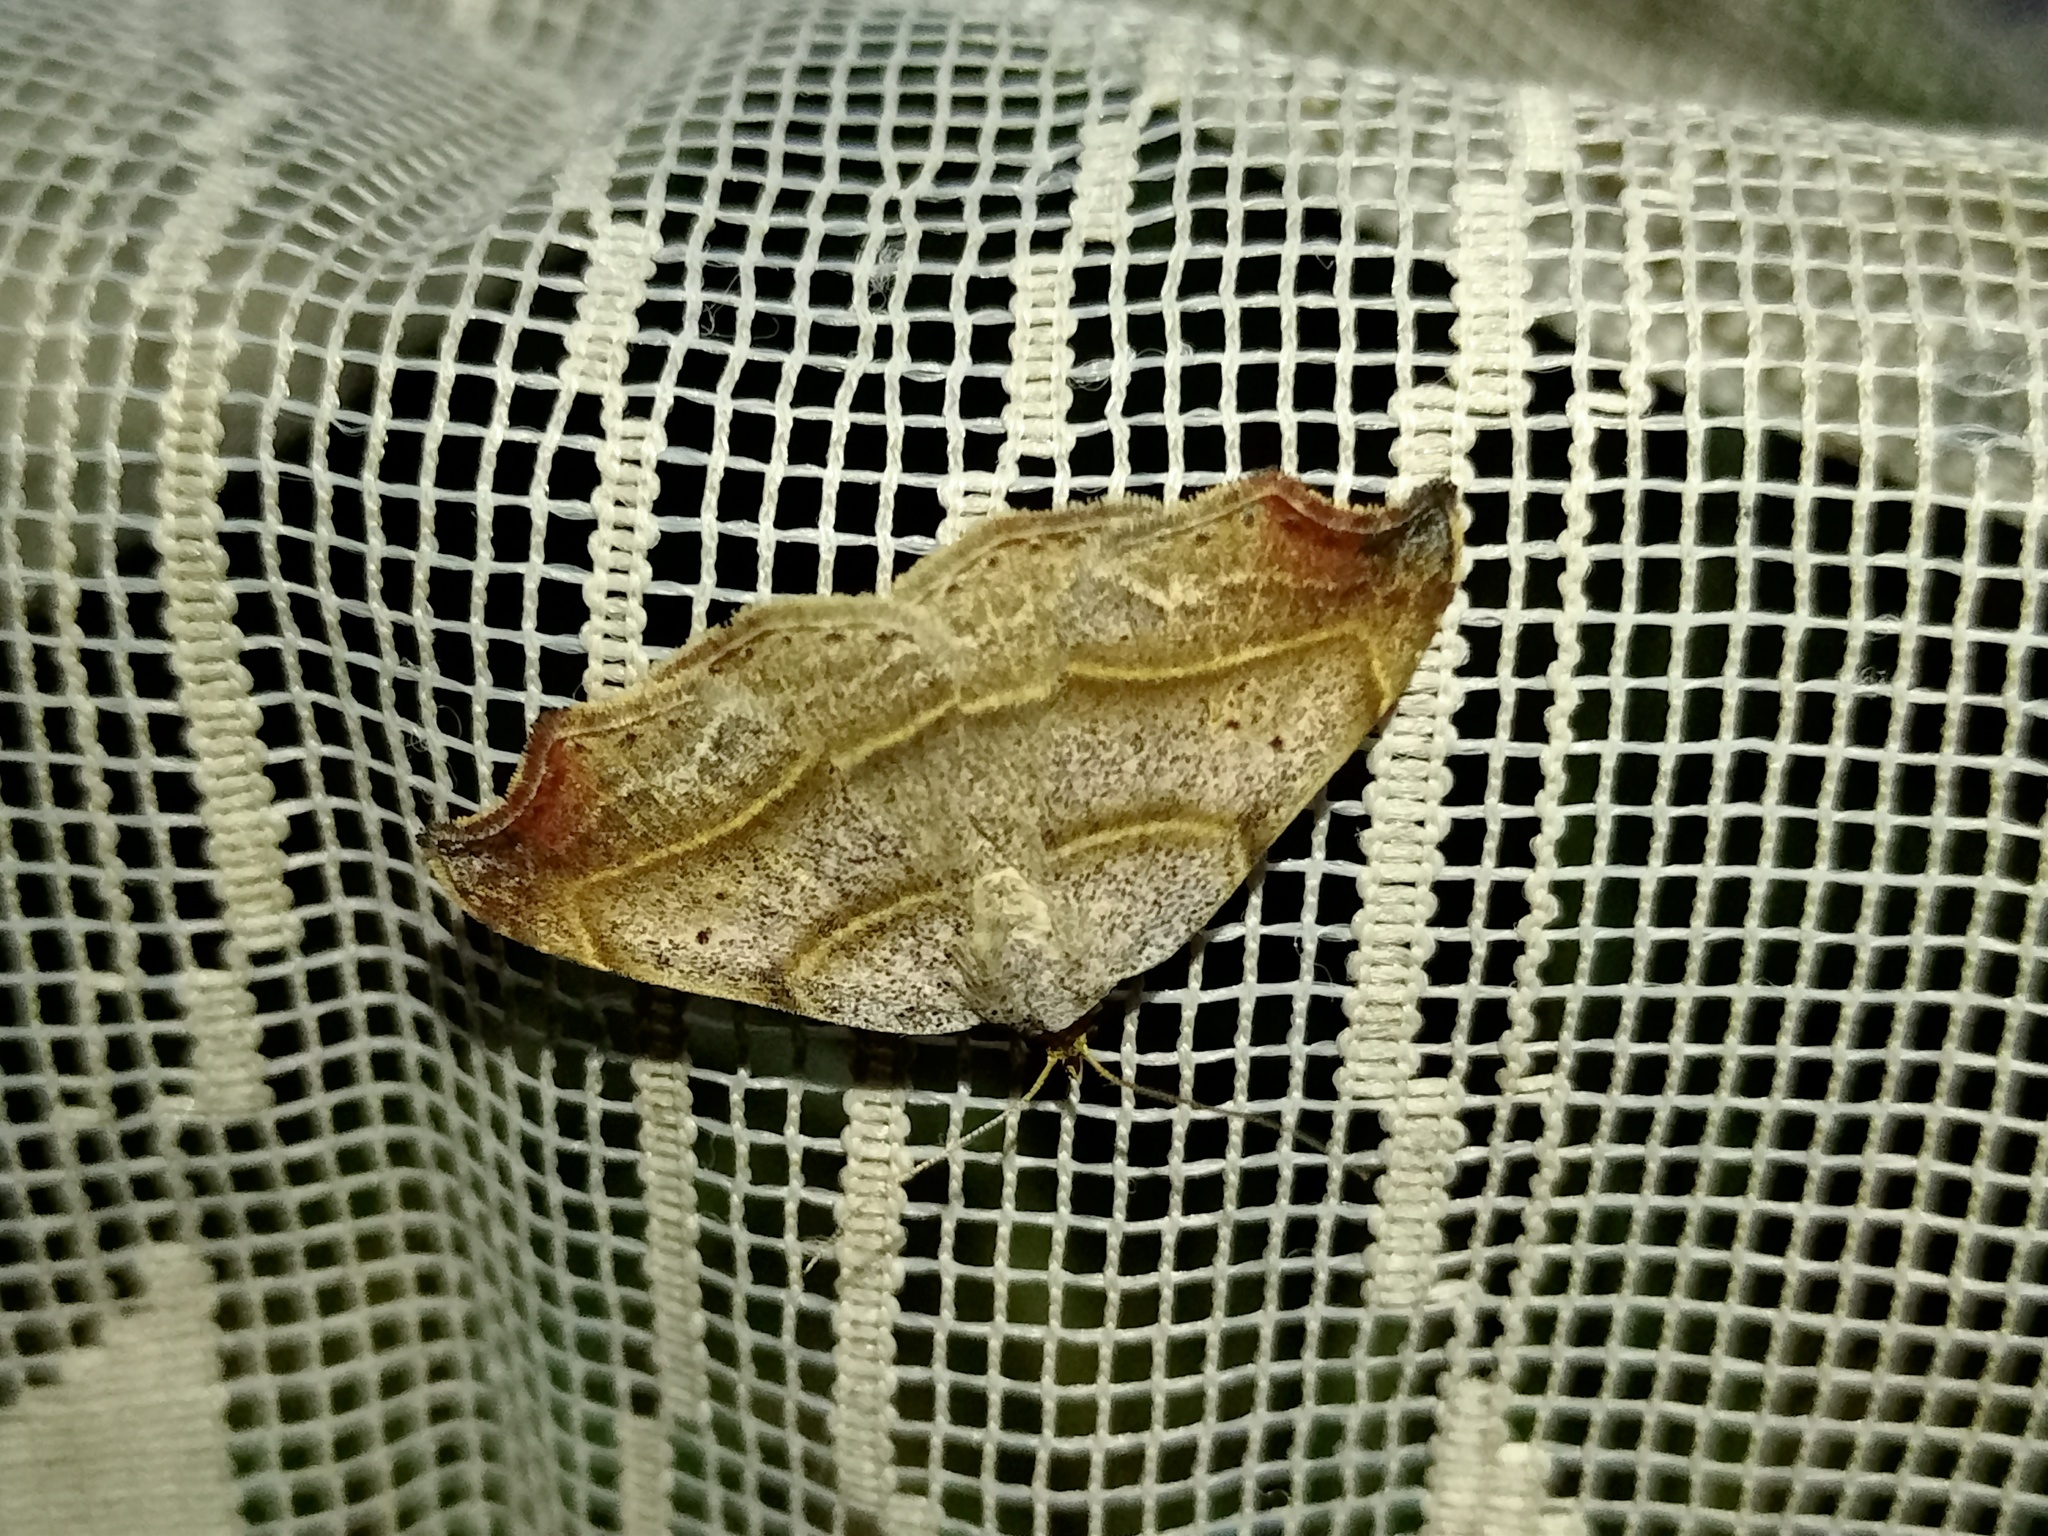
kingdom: Animalia
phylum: Arthropoda
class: Insecta
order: Lepidoptera
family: Erebidae
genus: Laspeyria
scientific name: Laspeyria flexula
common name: Beautiful hook-tip
